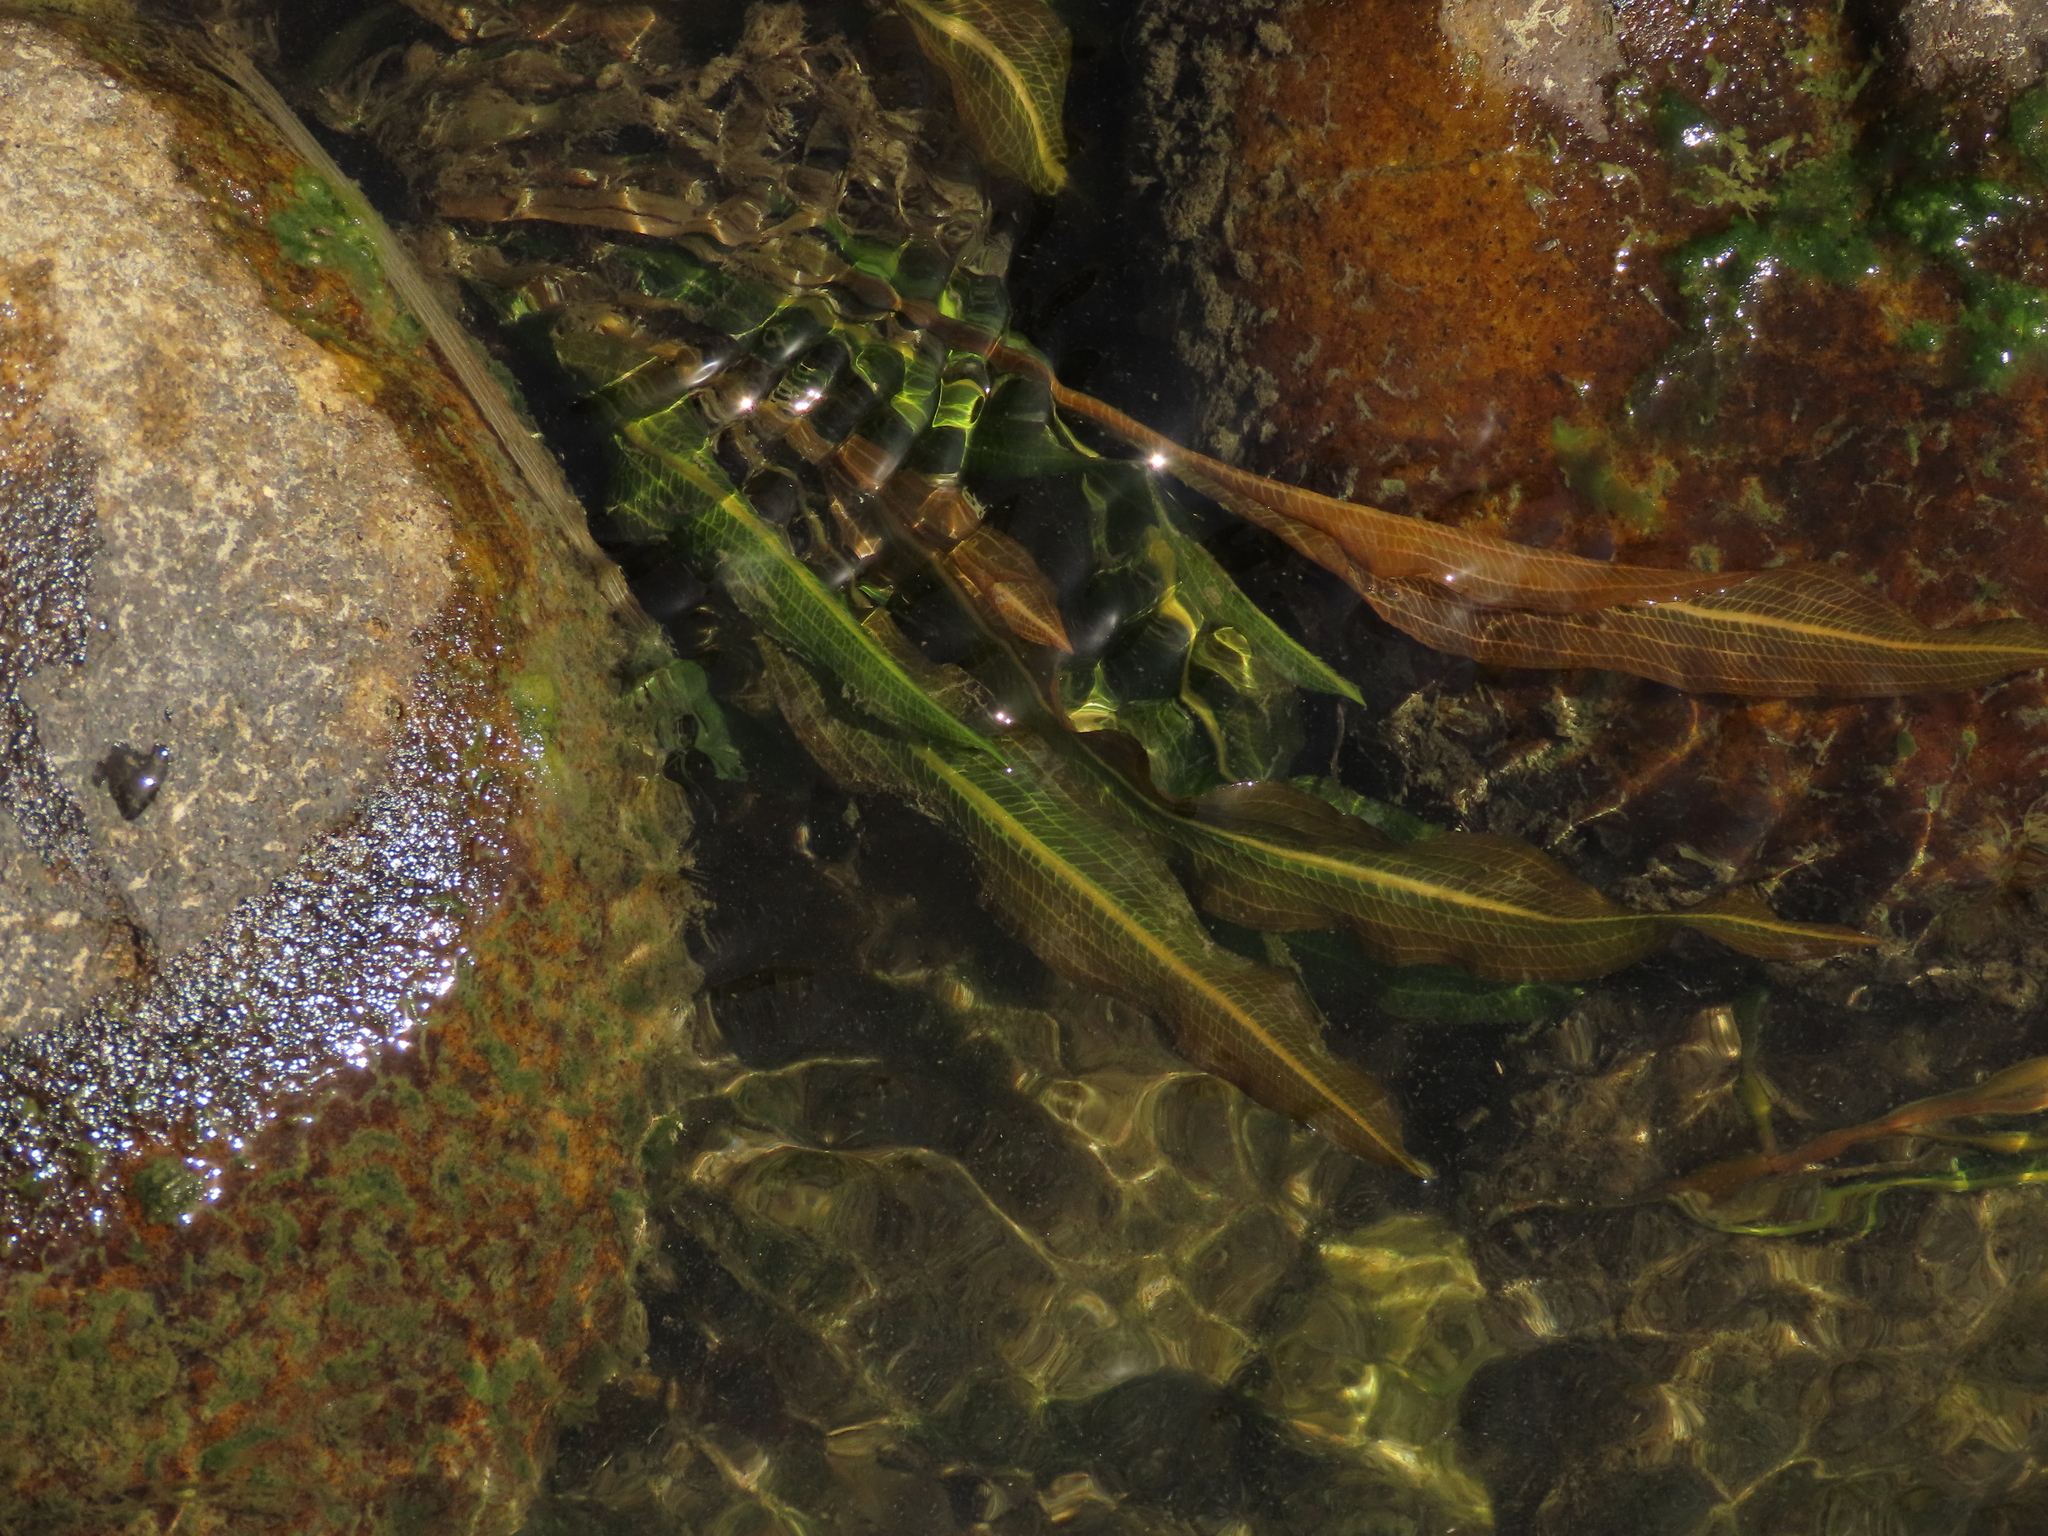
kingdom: Plantae
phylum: Tracheophyta
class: Liliopsida
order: Alismatales
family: Potamogetonaceae
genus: Potamogeton
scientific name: Potamogeton wrightii
